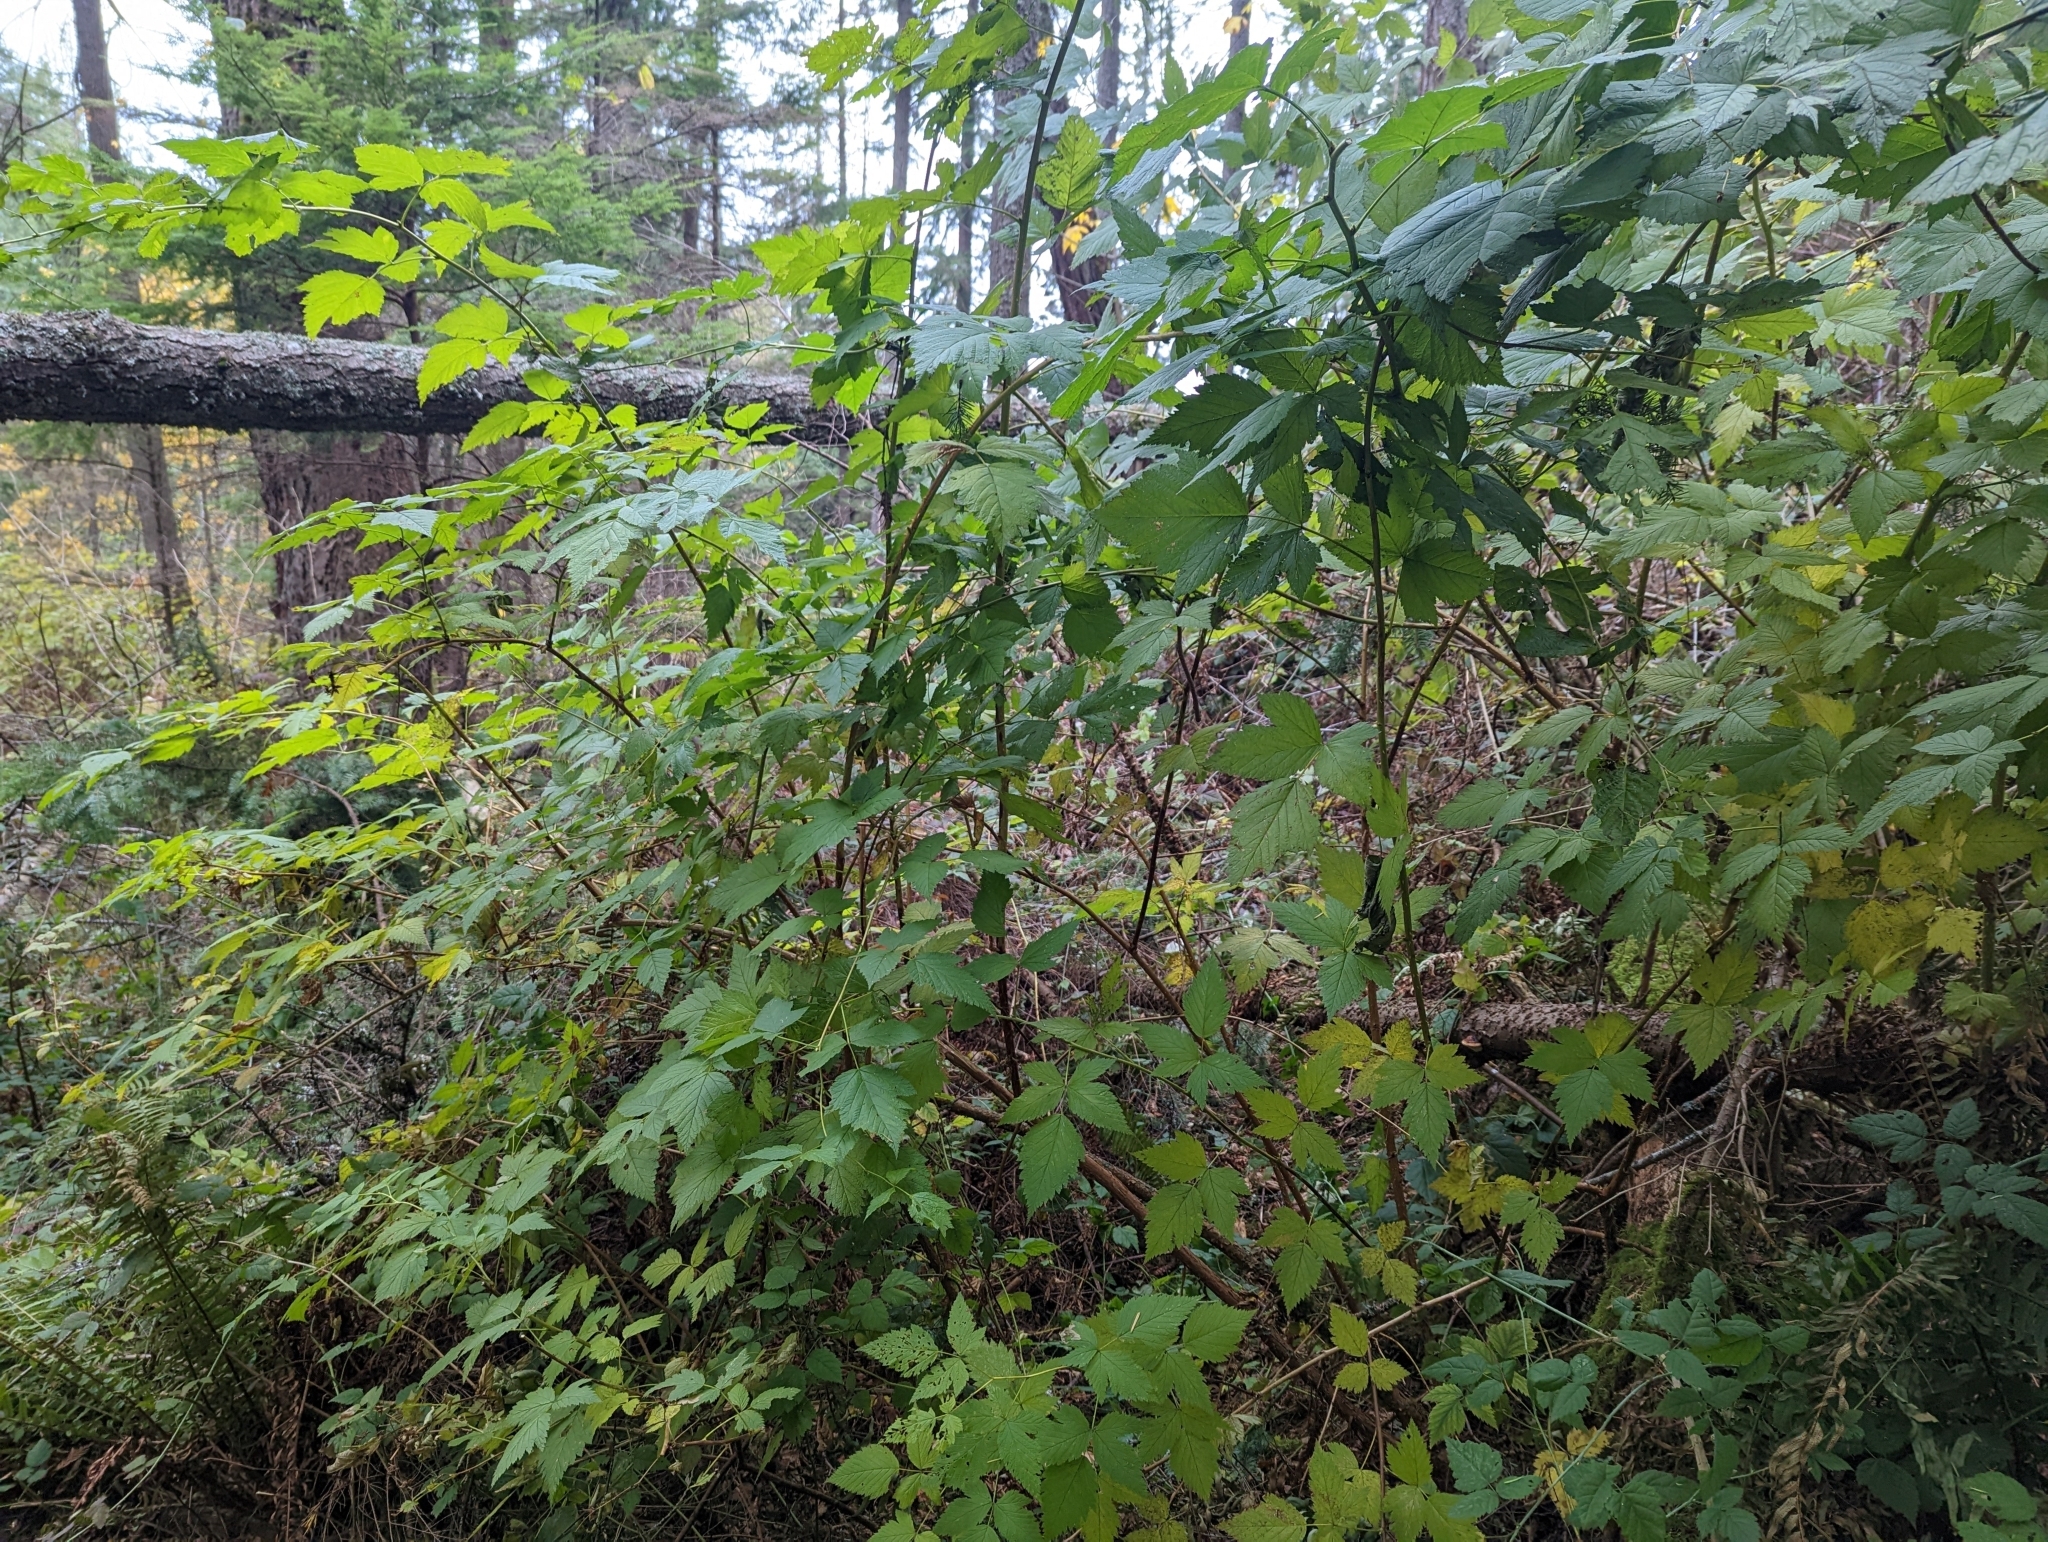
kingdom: Plantae
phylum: Tracheophyta
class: Magnoliopsida
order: Rosales
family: Rosaceae
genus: Rubus
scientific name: Rubus spectabilis
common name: Salmonberry
